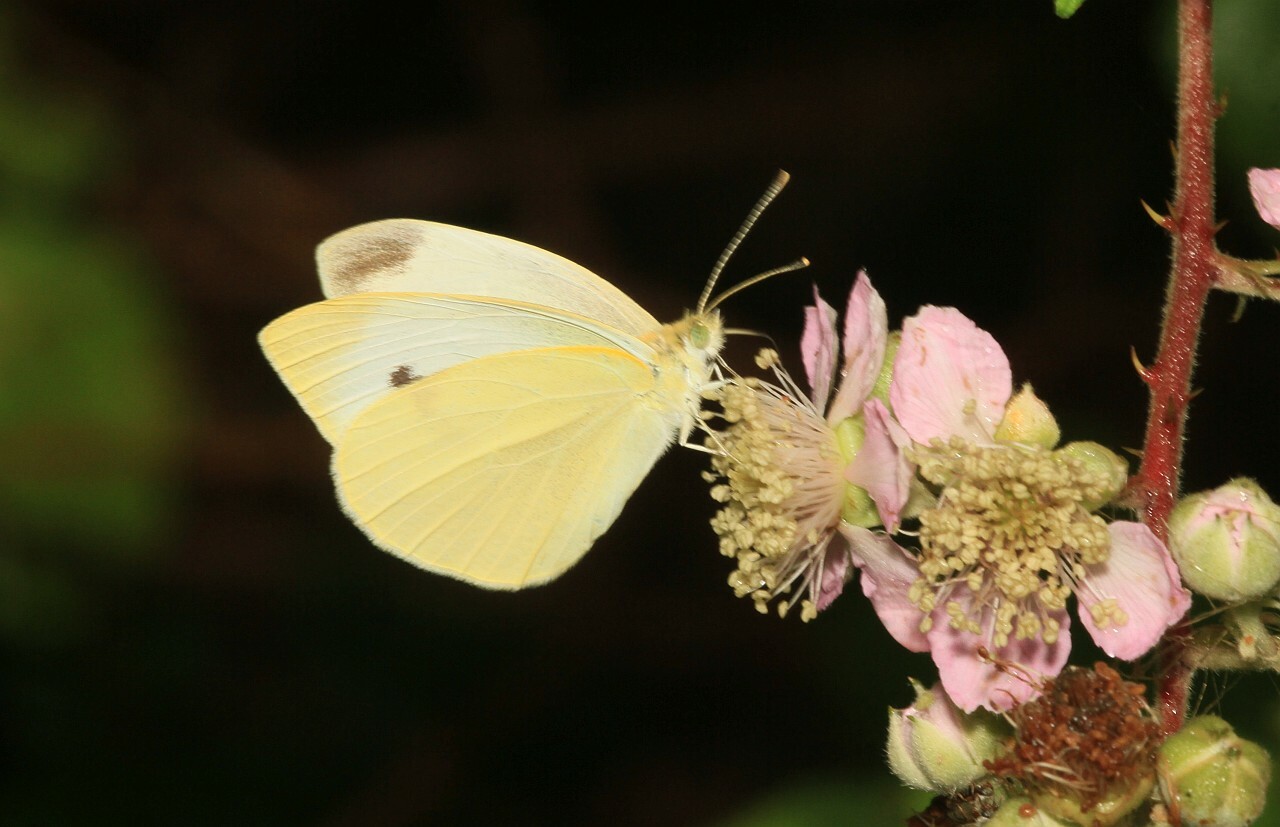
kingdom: Animalia
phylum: Arthropoda
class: Insecta
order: Lepidoptera
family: Pieridae
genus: Pieris
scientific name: Pieris rapae
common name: Small white
